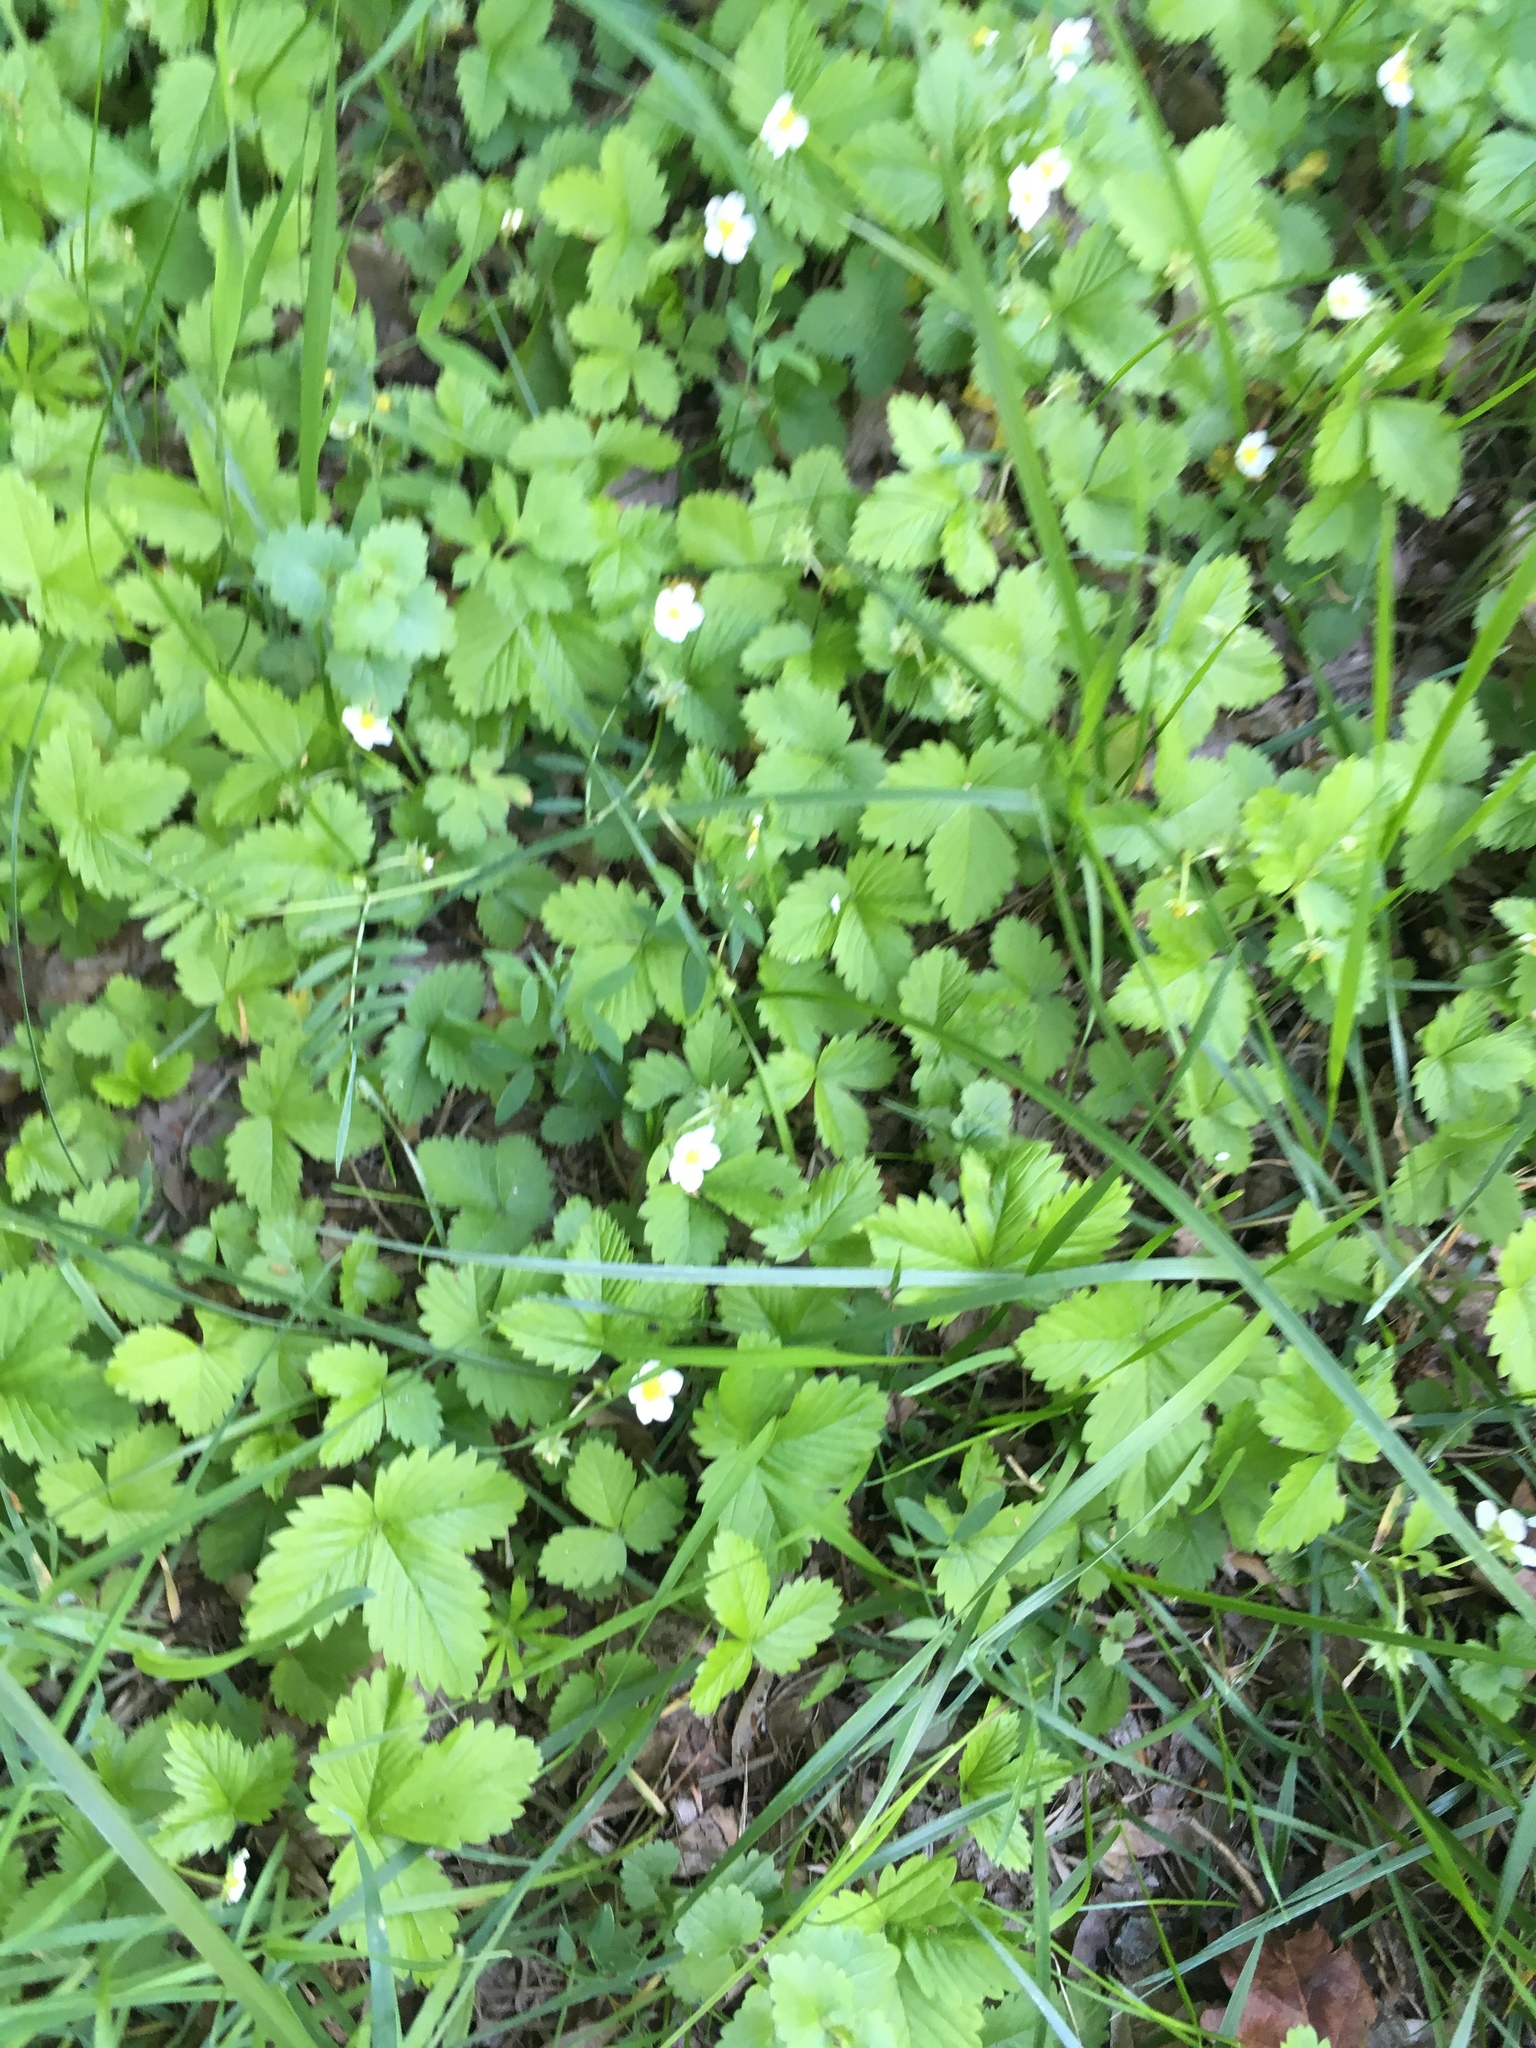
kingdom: Plantae
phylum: Tracheophyta
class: Magnoliopsida
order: Rosales
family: Rosaceae
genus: Fragaria
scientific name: Fragaria vesca
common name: Wild strawberry
